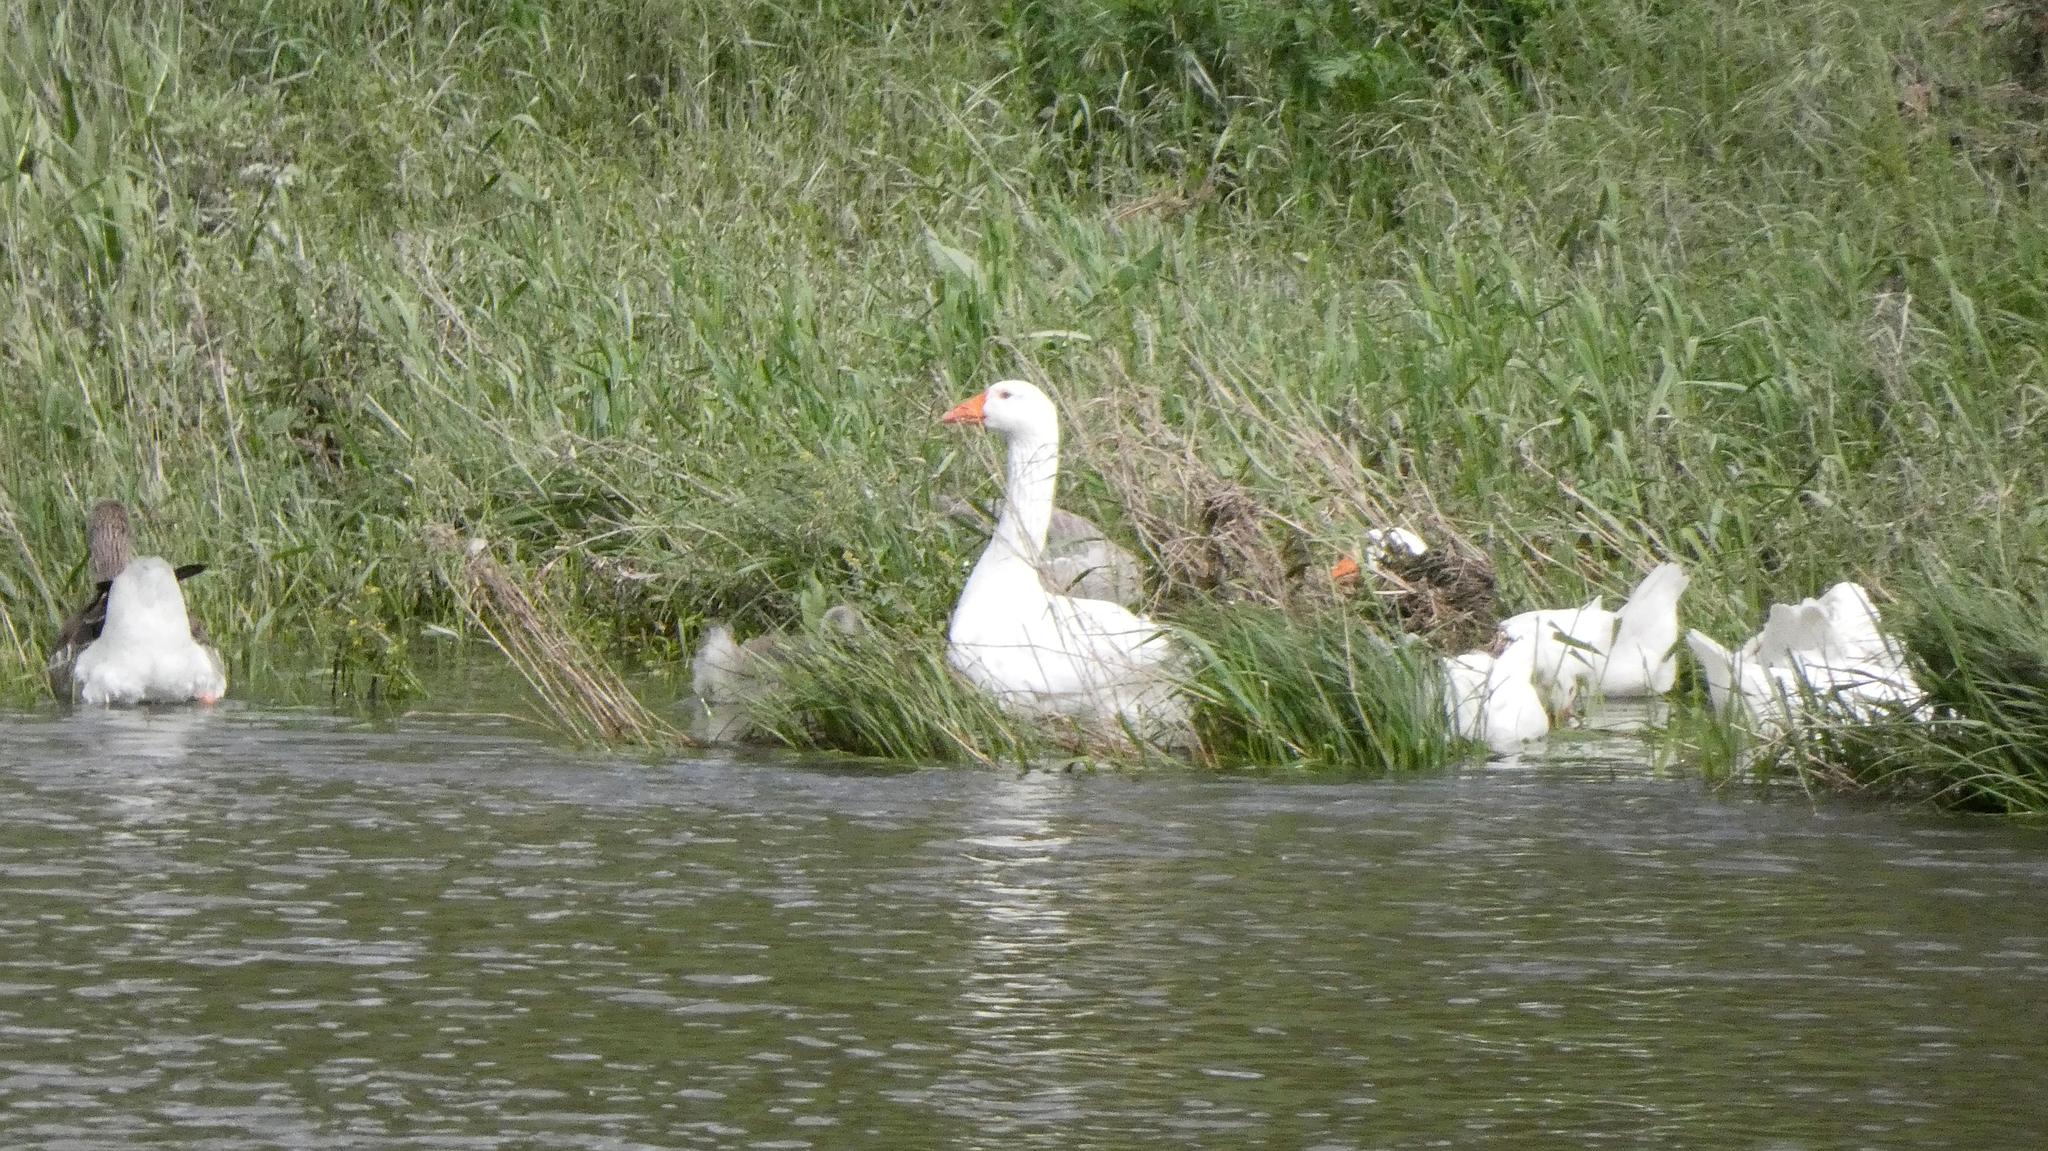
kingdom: Animalia
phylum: Chordata
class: Aves
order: Anseriformes
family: Anatidae
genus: Anser
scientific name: Anser anser
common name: Greylag goose
